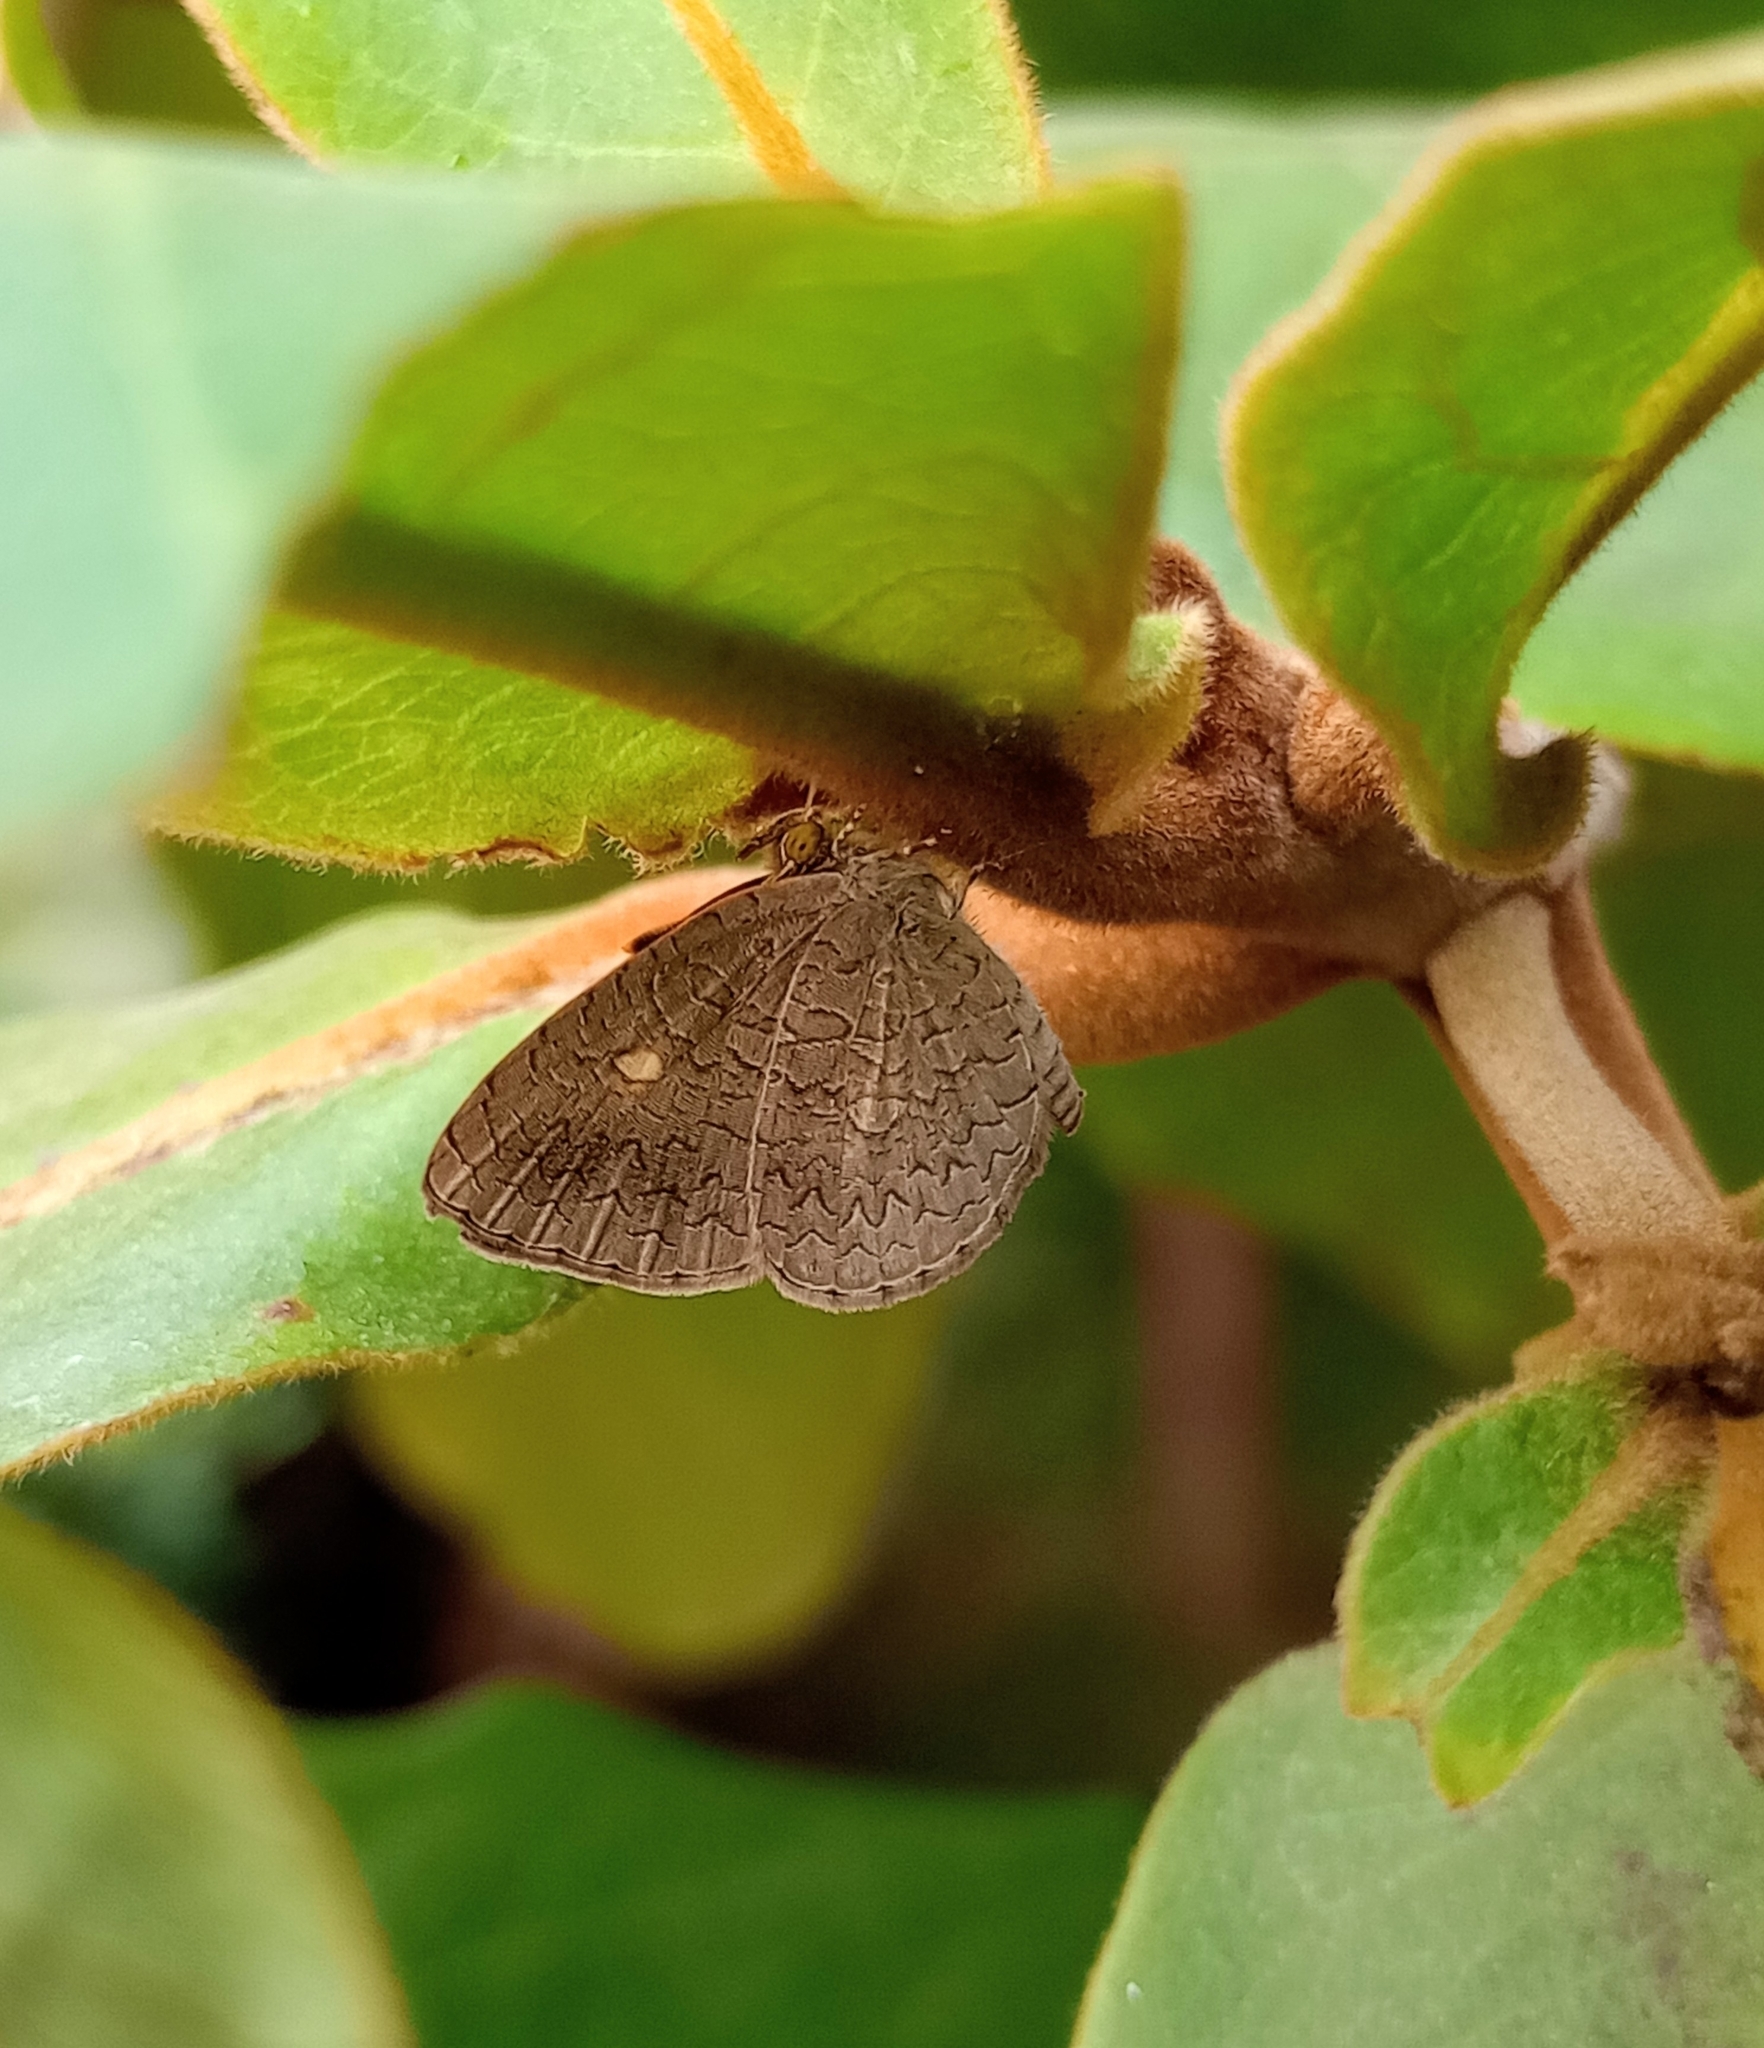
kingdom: Animalia
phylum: Arthropoda
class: Insecta
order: Lepidoptera
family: Lycaenidae
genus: Spalgis
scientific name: Spalgis epius
